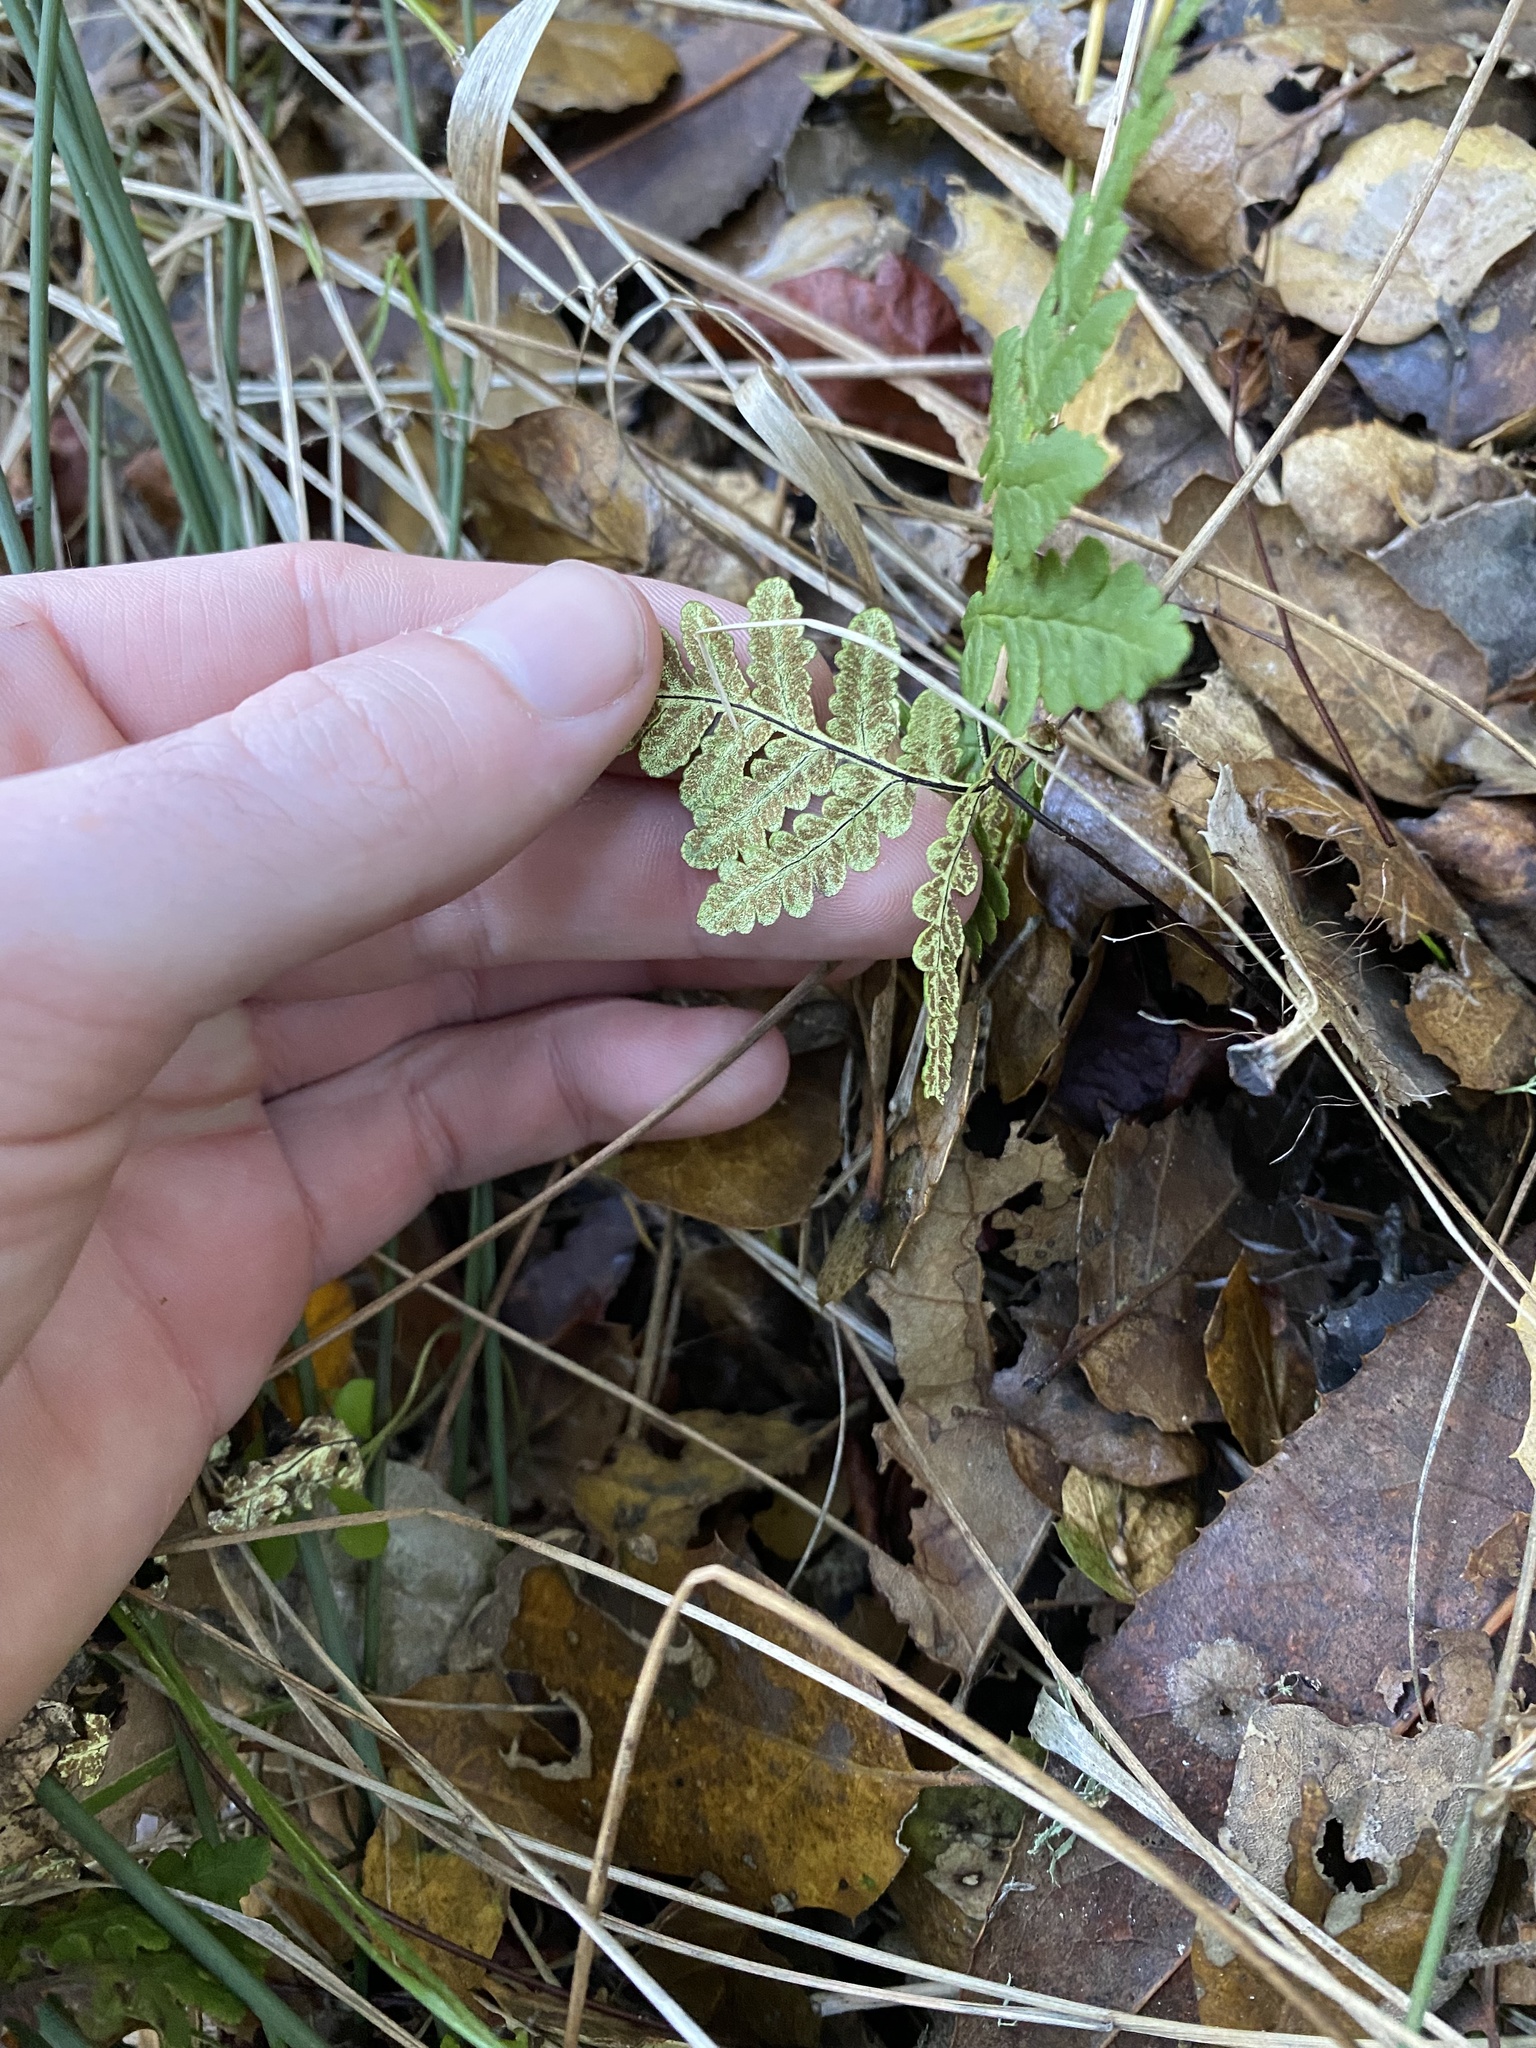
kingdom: Plantae
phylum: Tracheophyta
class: Polypodiopsida
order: Polypodiales
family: Pteridaceae
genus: Pentagramma
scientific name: Pentagramma triangularis
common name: Gold fern
